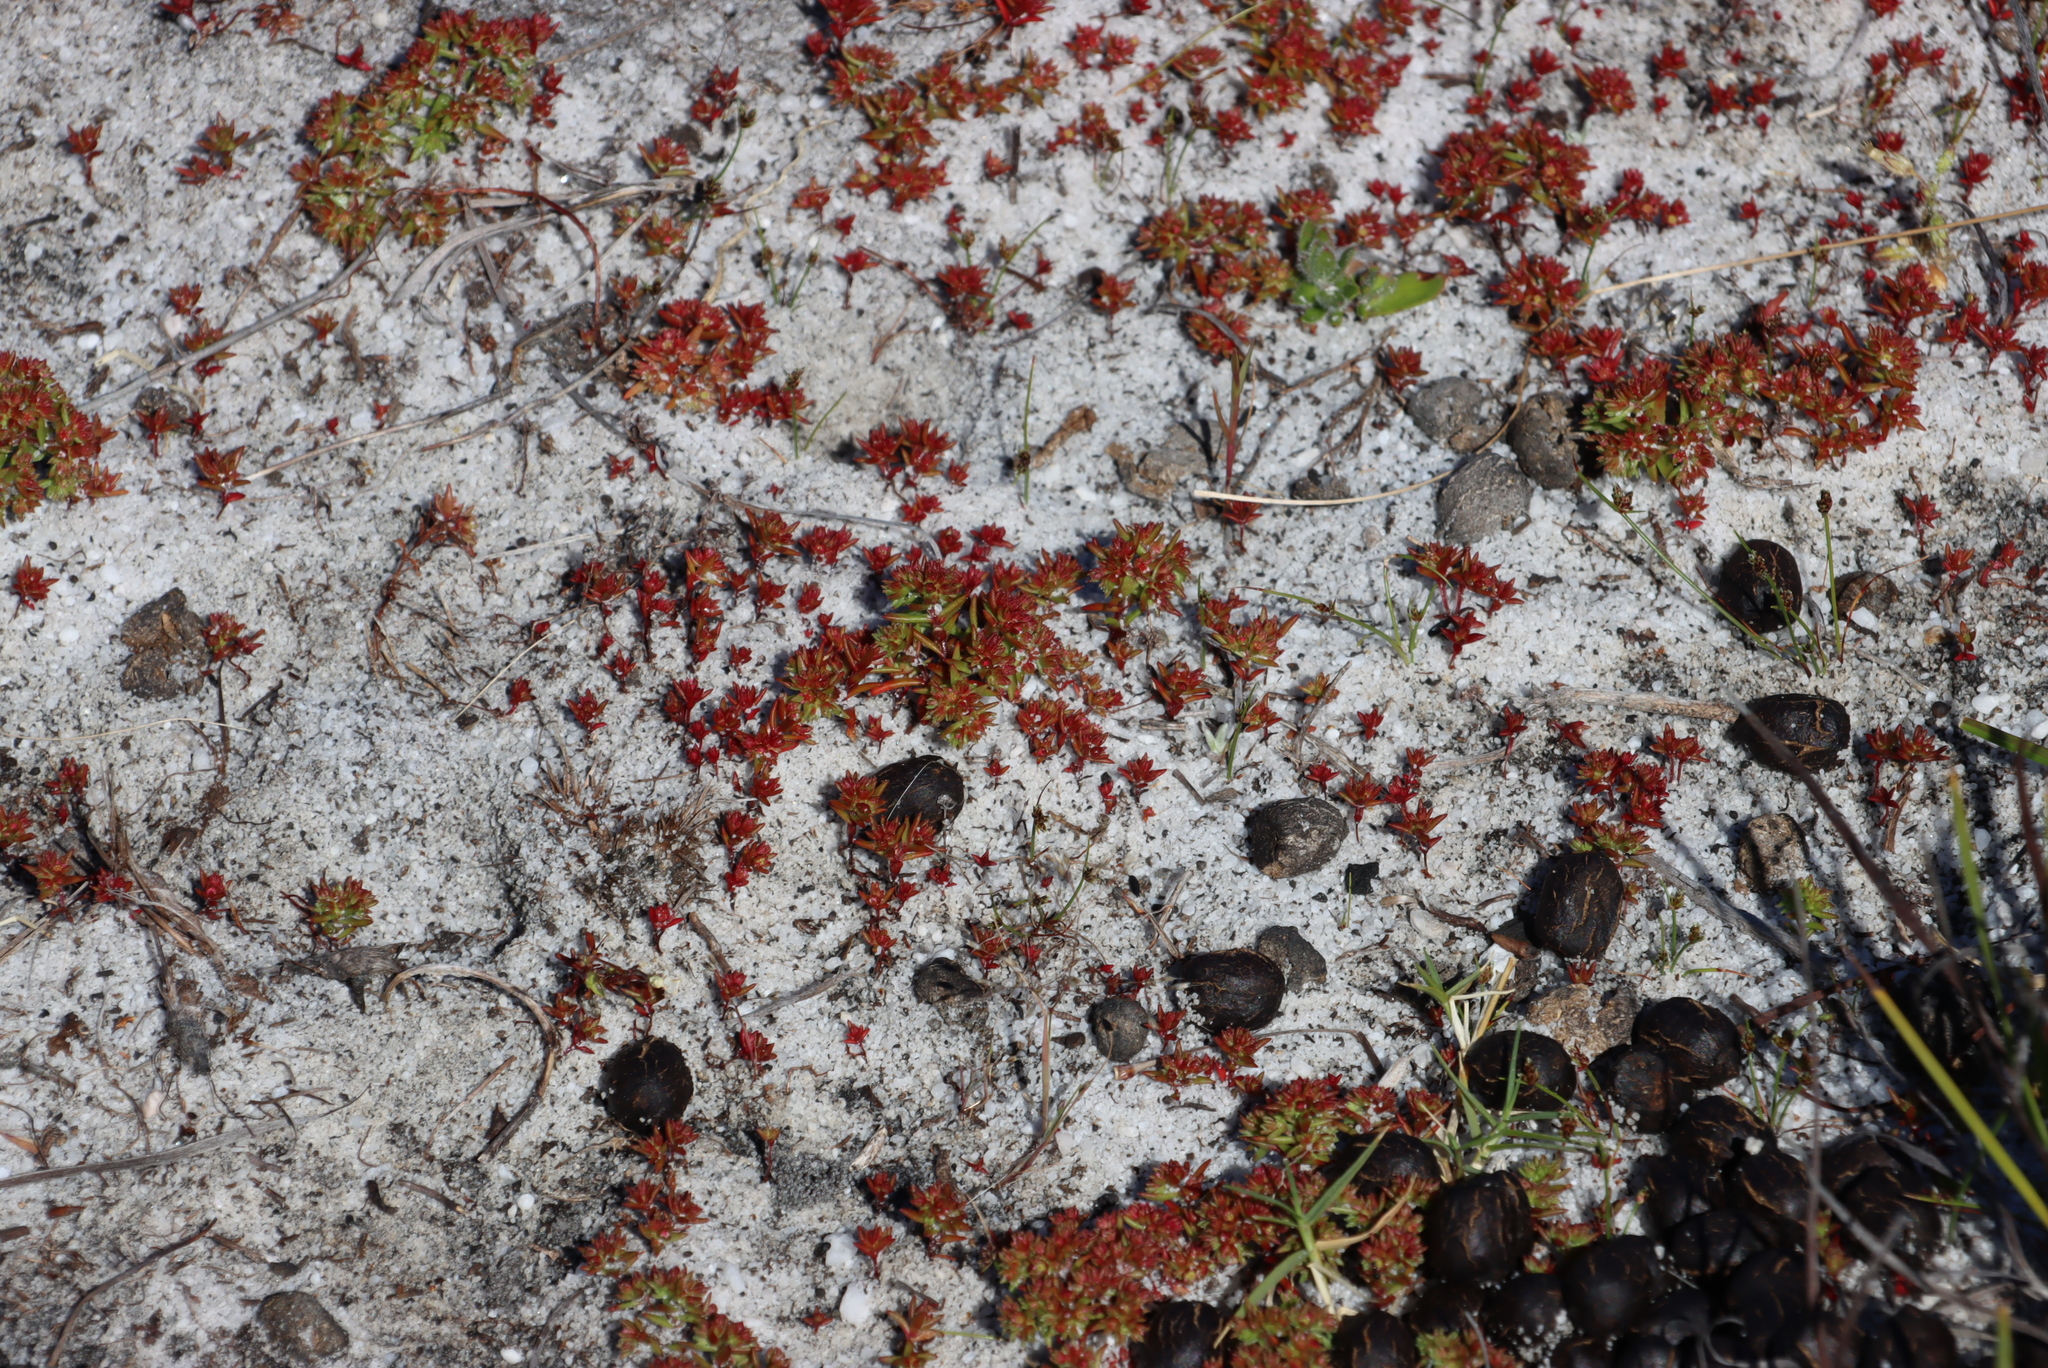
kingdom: Plantae
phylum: Tracheophyta
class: Magnoliopsida
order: Saxifragales
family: Crassulaceae
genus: Crassula
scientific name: Crassula glomerata
